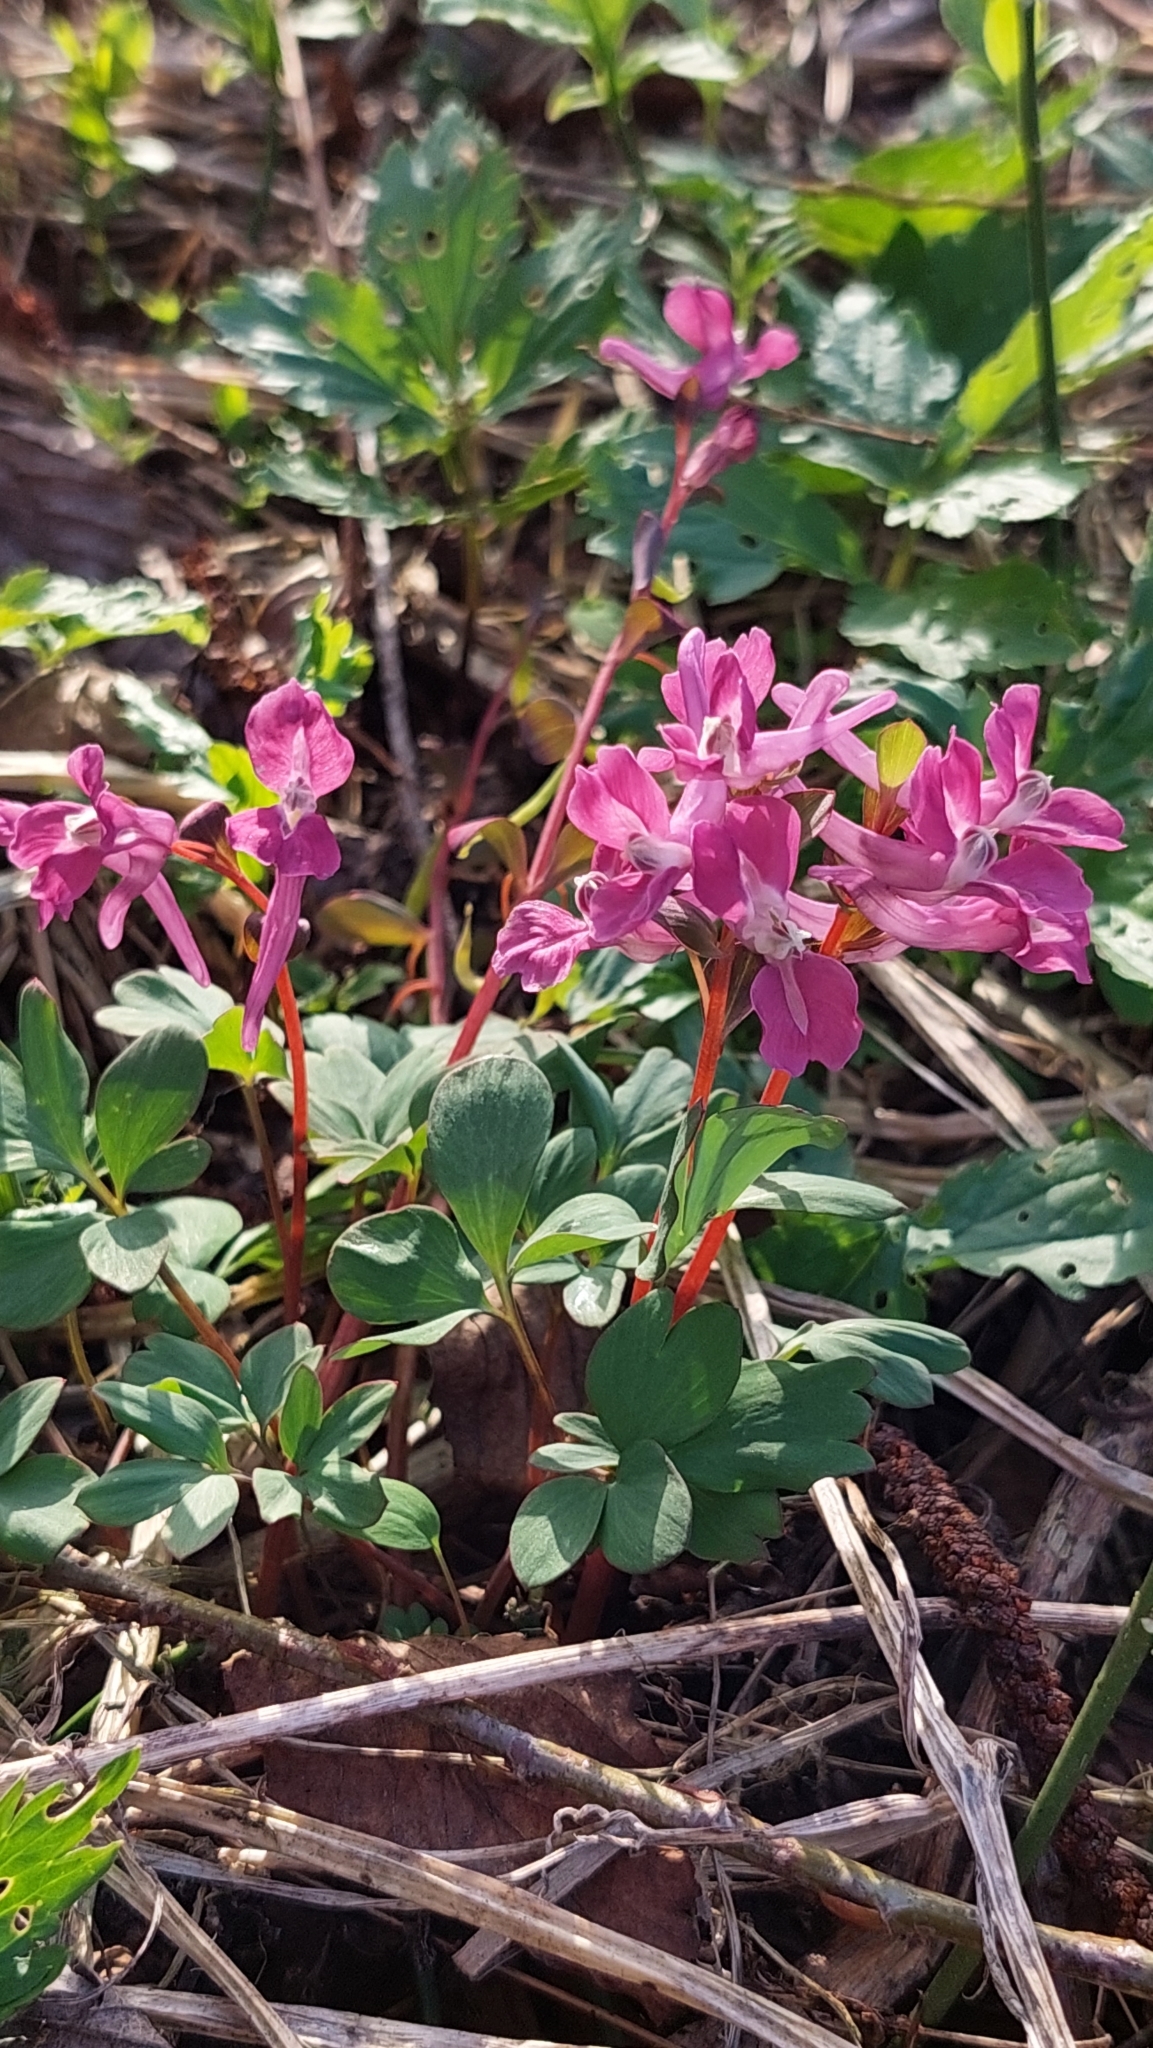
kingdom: Plantae
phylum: Tracheophyta
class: Magnoliopsida
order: Ranunculales
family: Papaveraceae
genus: Corydalis
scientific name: Corydalis caucasica
